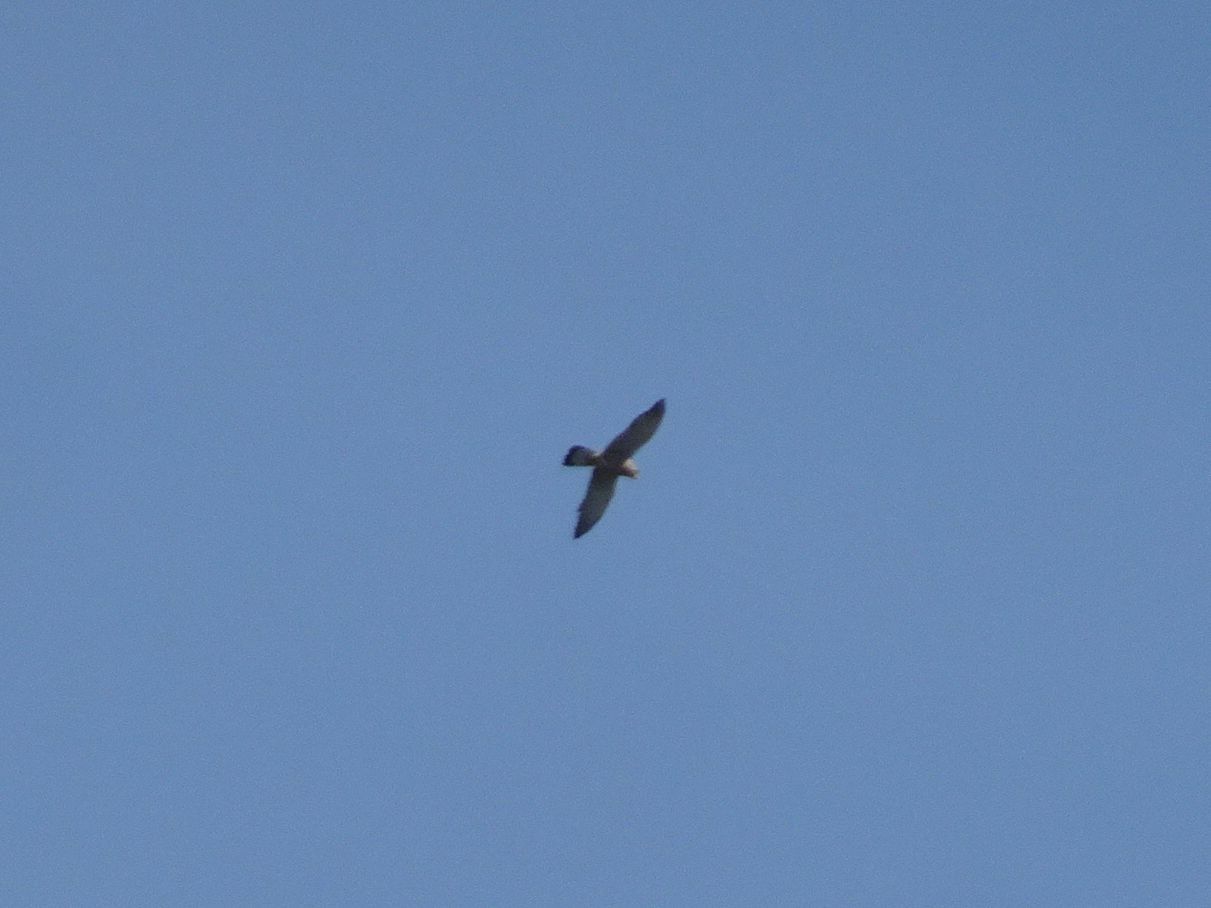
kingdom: Animalia
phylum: Chordata
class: Aves
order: Falconiformes
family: Falconidae
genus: Falco
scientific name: Falco tinnunculus
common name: Common kestrel
